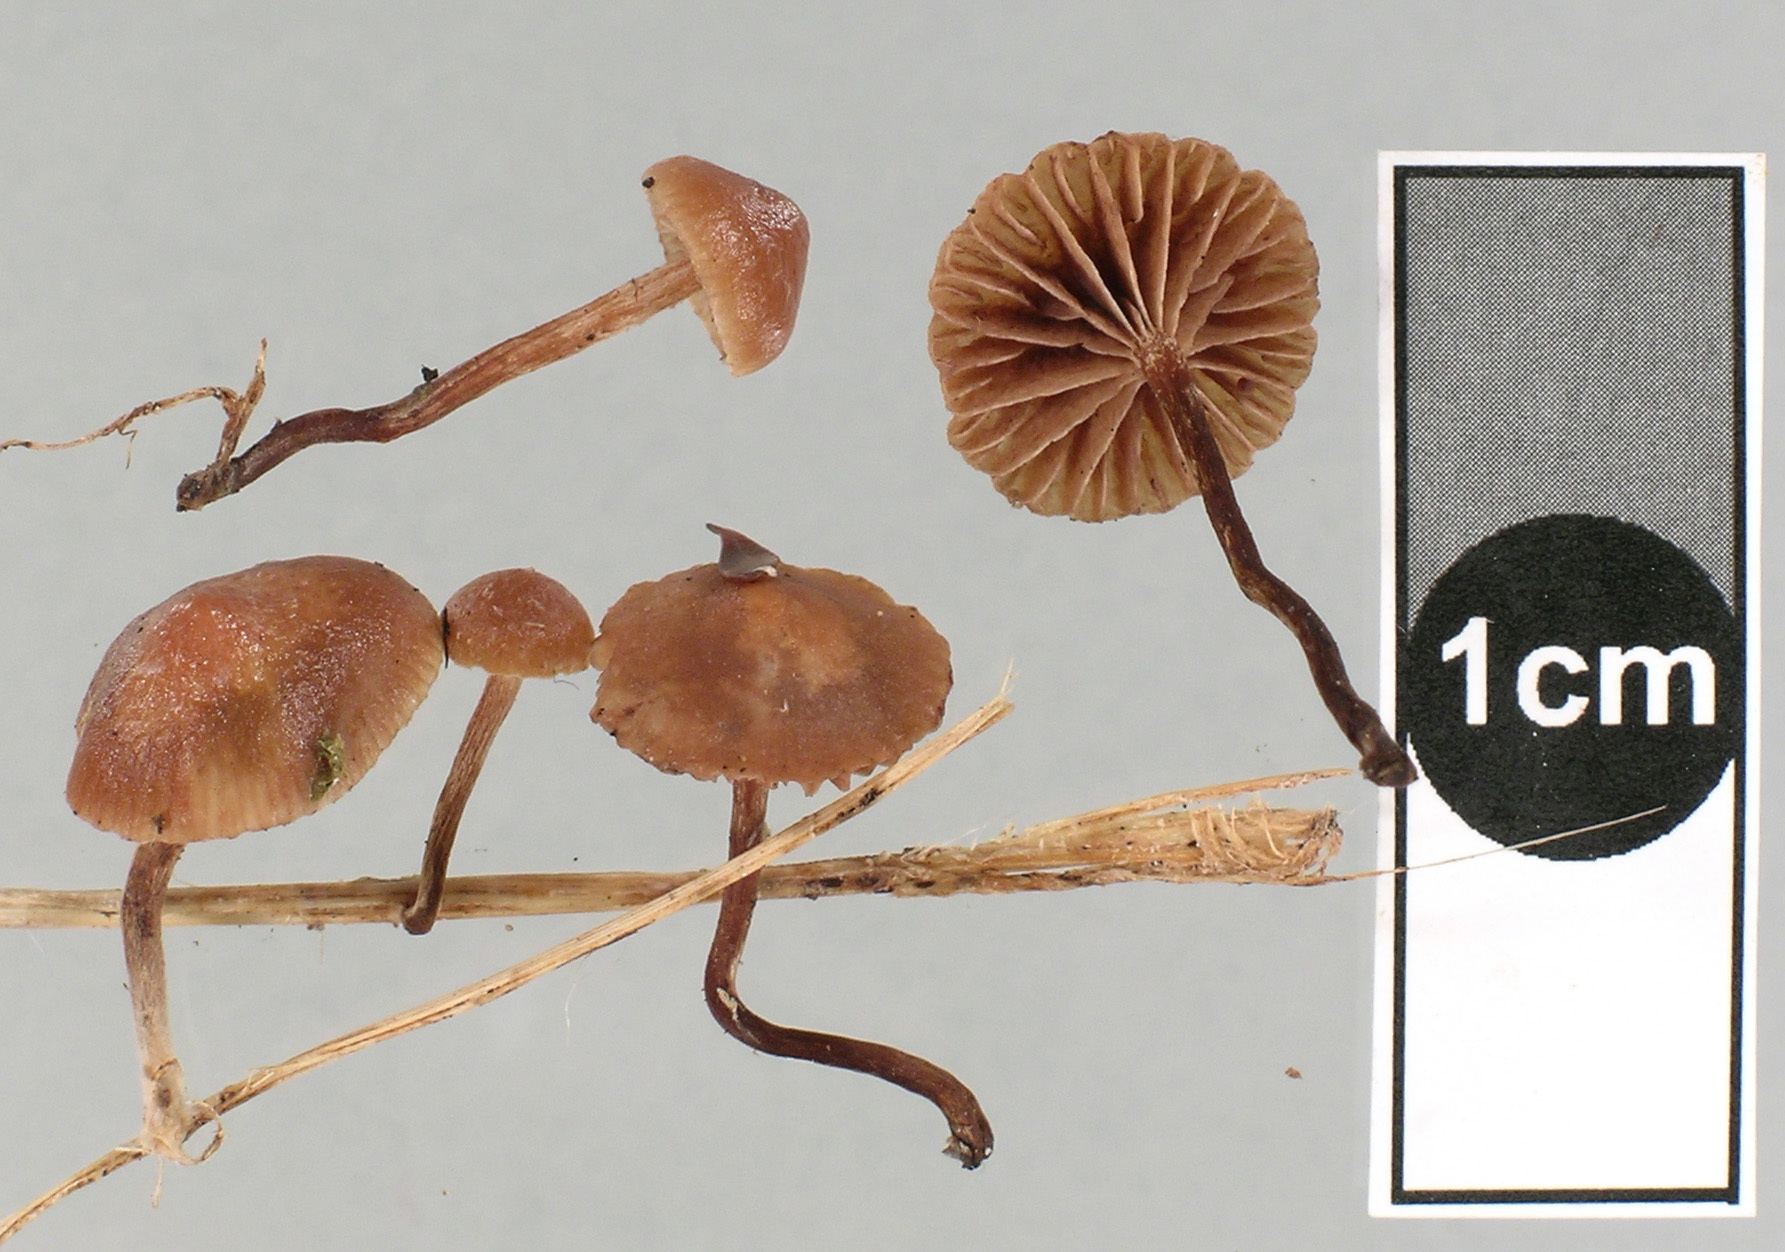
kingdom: Fungi
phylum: Basidiomycota
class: Agaricomycetes
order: Agaricales
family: Hymenogastraceae
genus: Psilocybe
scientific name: Psilocybe subviscida
